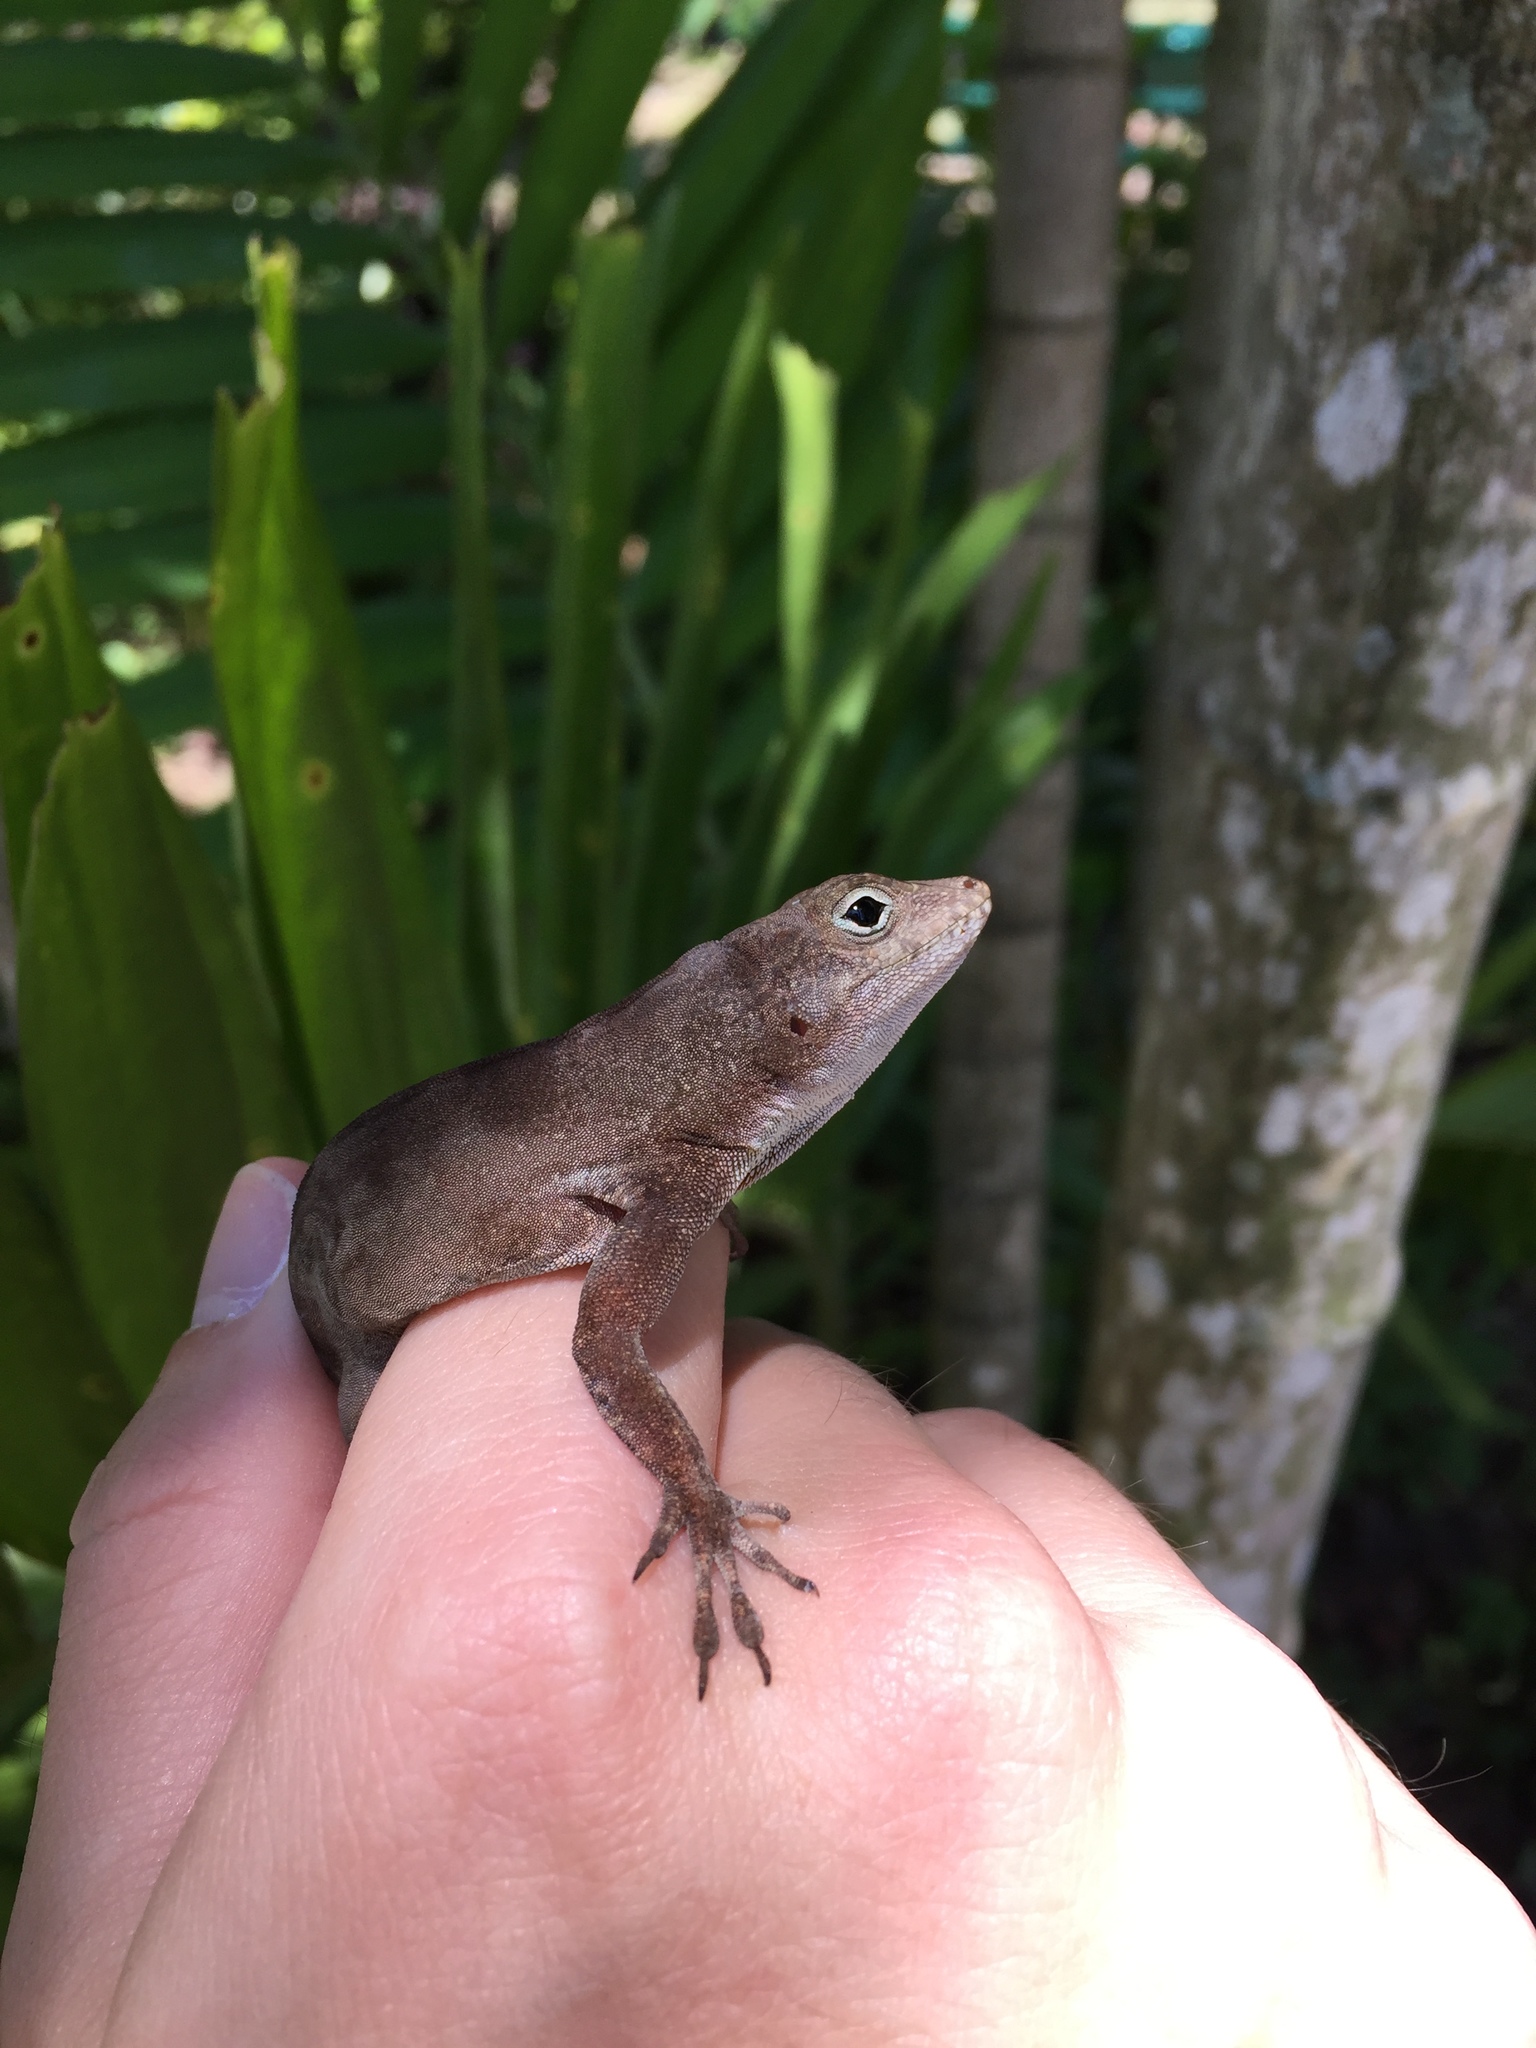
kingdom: Animalia
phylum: Chordata
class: Squamata
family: Dactyloidae
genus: Anolis
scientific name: Anolis cristatellus
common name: Crested anole
